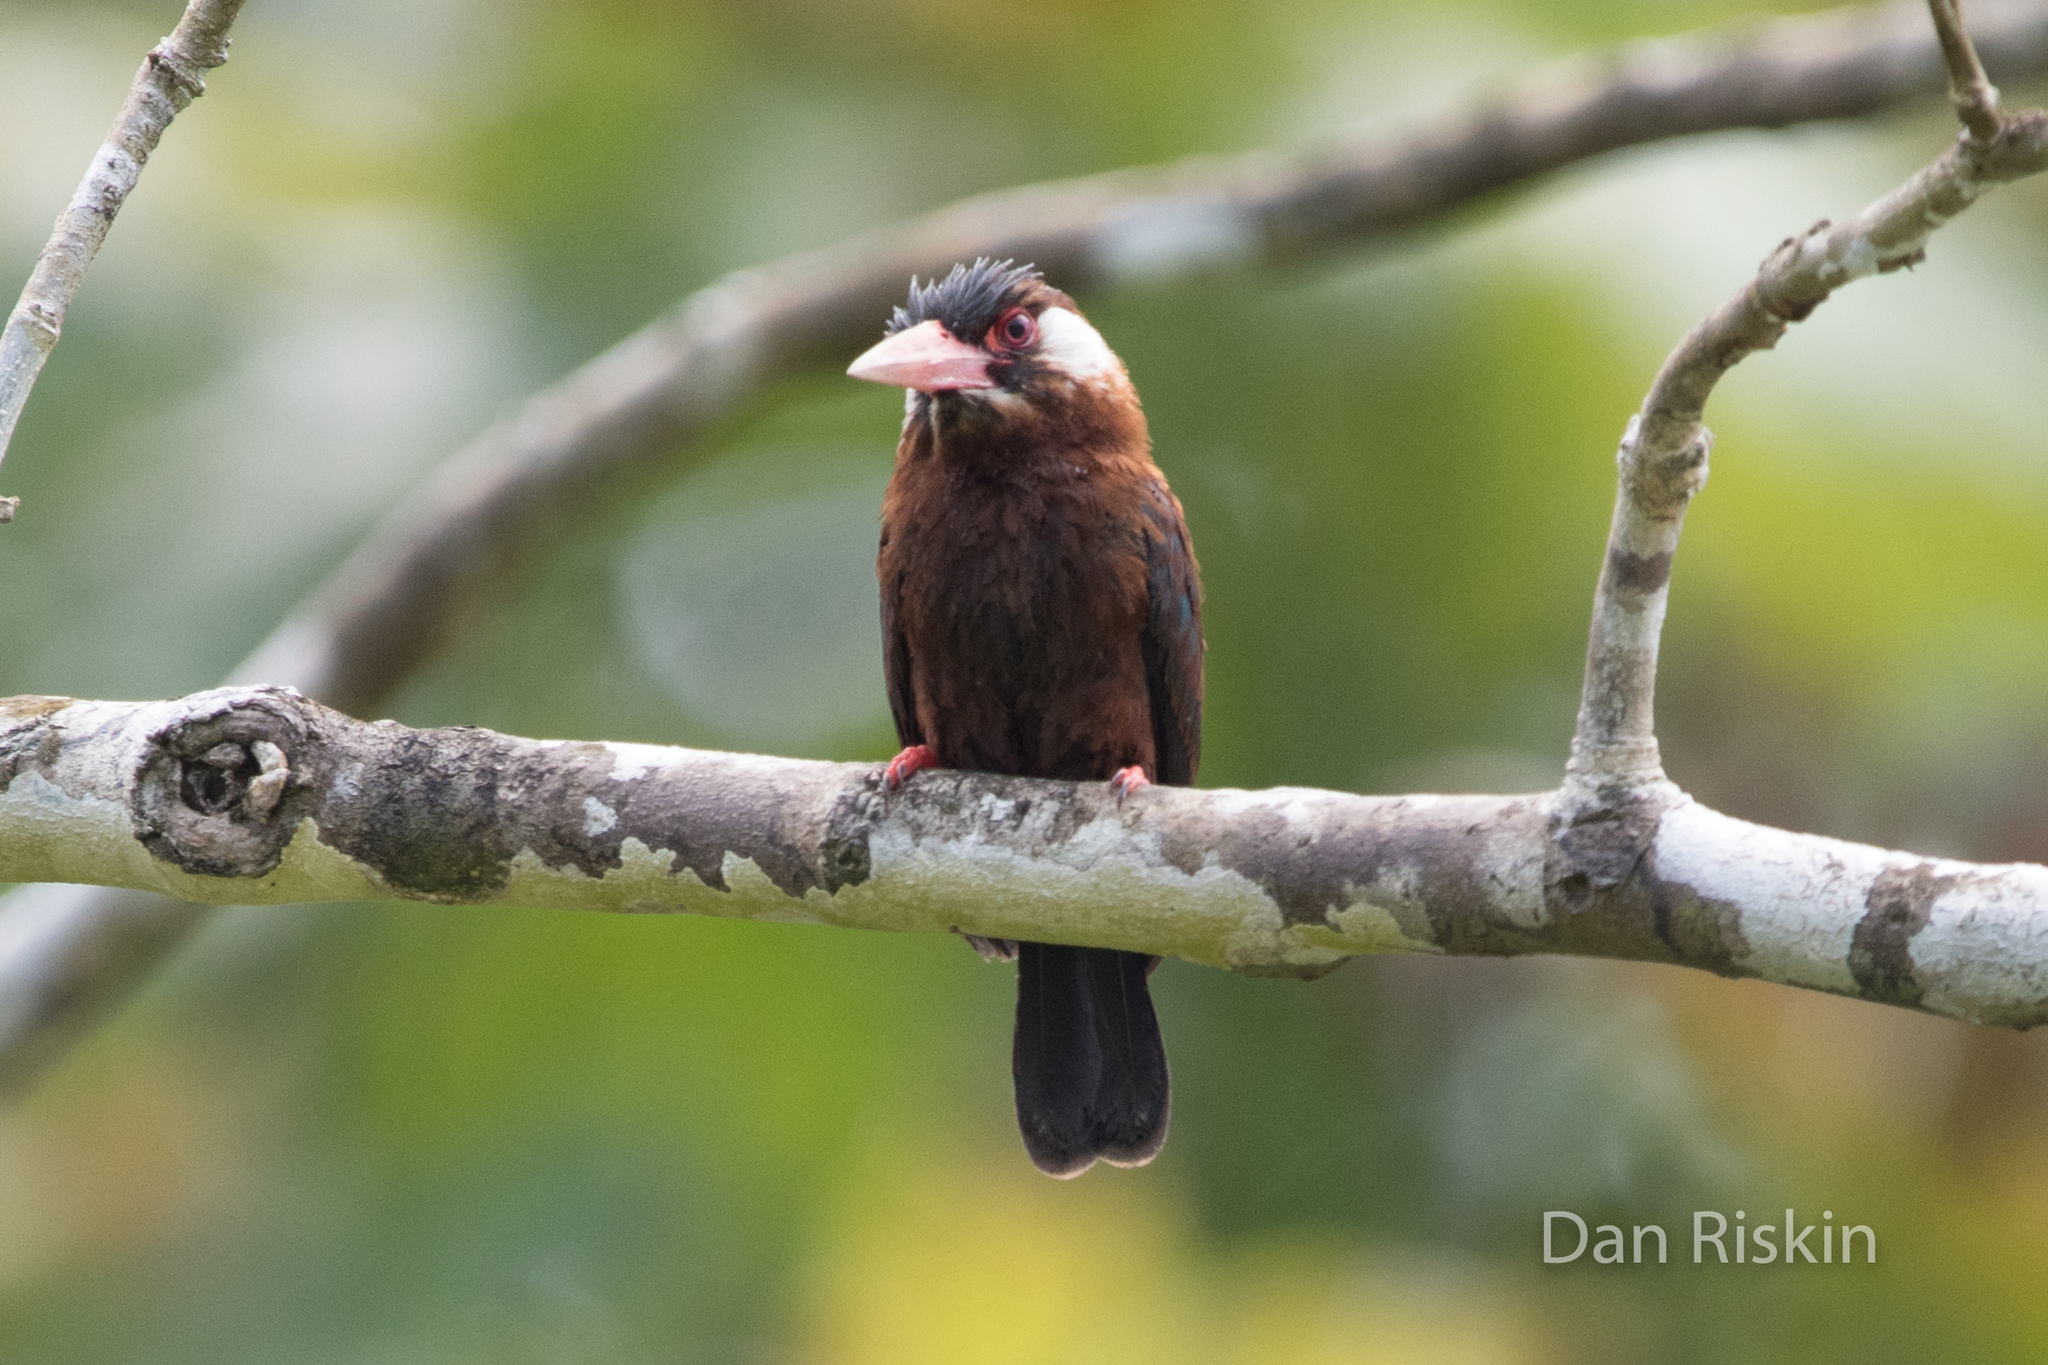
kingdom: Animalia
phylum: Chordata
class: Aves
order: Piciformes
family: Galbulidae
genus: Galbalcyrhynchus
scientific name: Galbalcyrhynchus leucotis
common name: White-eared jacamar
